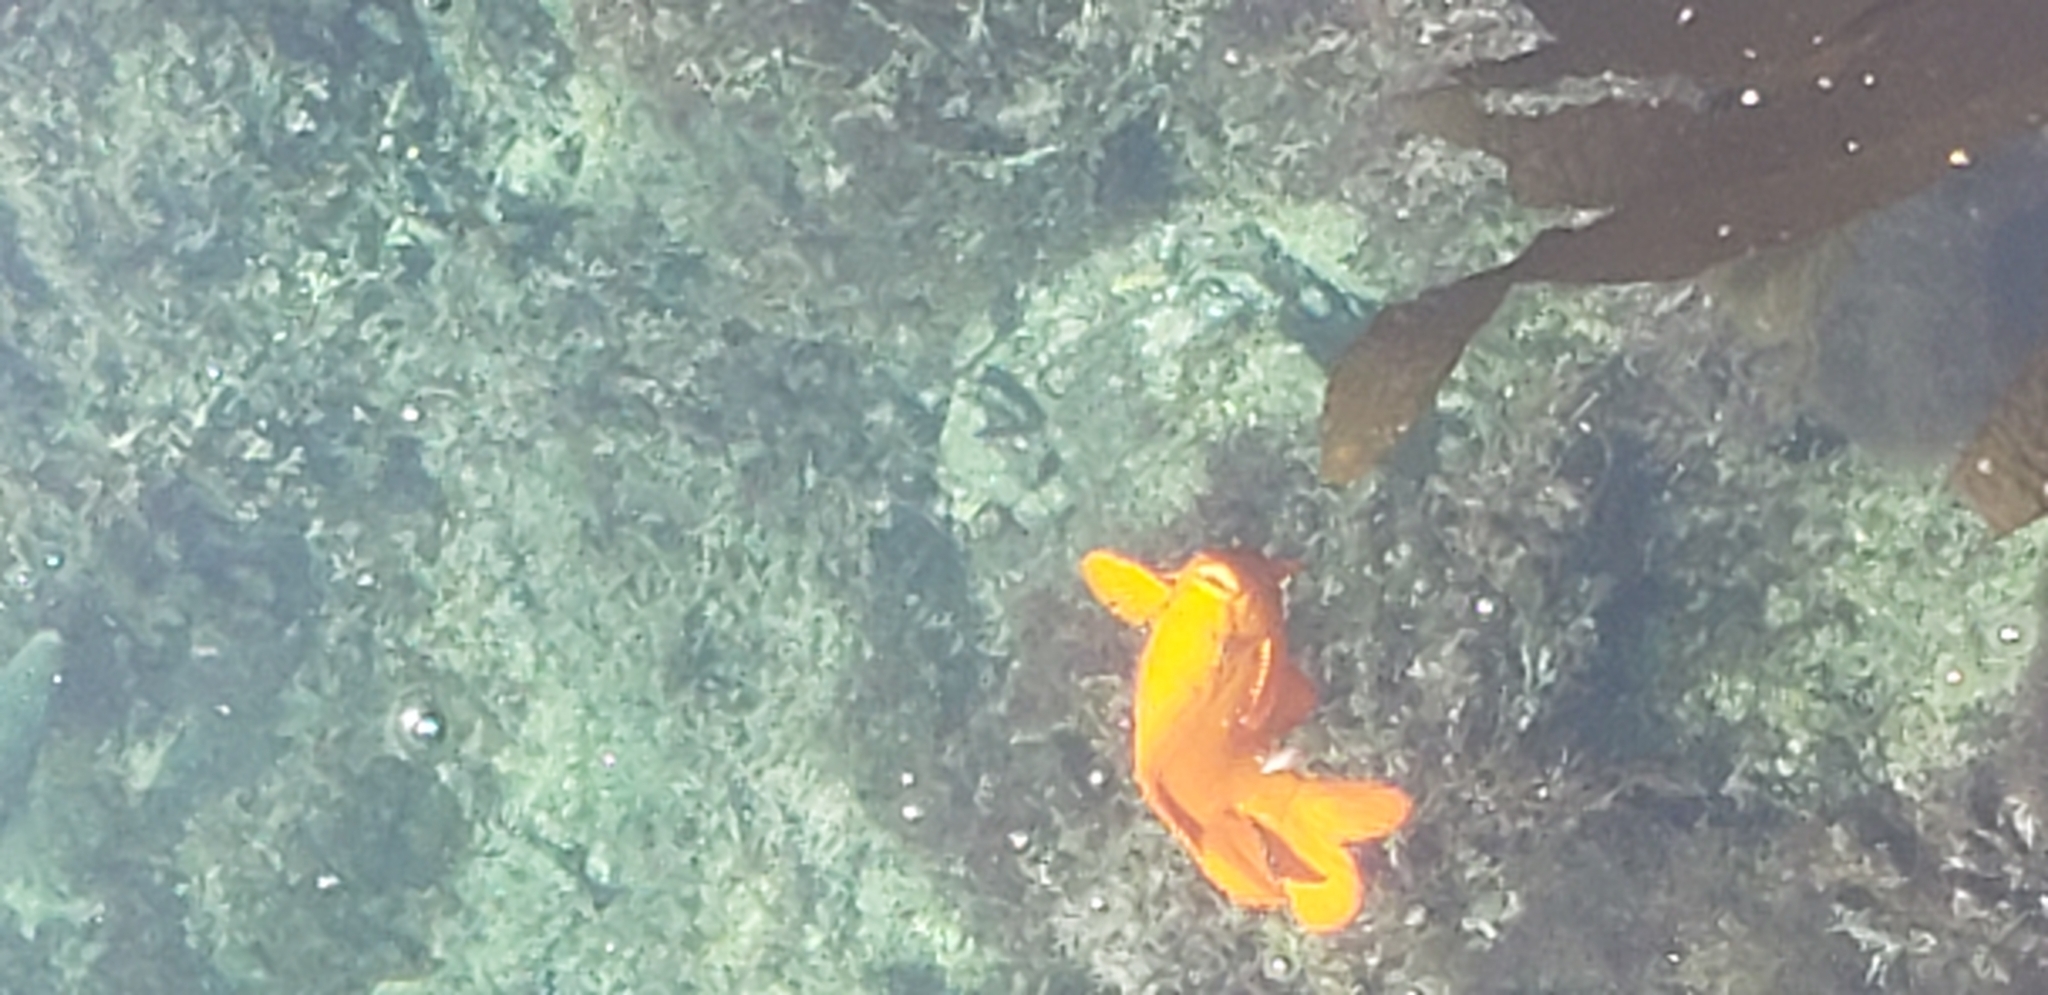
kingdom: Animalia
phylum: Chordata
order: Perciformes
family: Pomacentridae
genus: Hypsypops
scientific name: Hypsypops rubicundus
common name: Garibaldi
